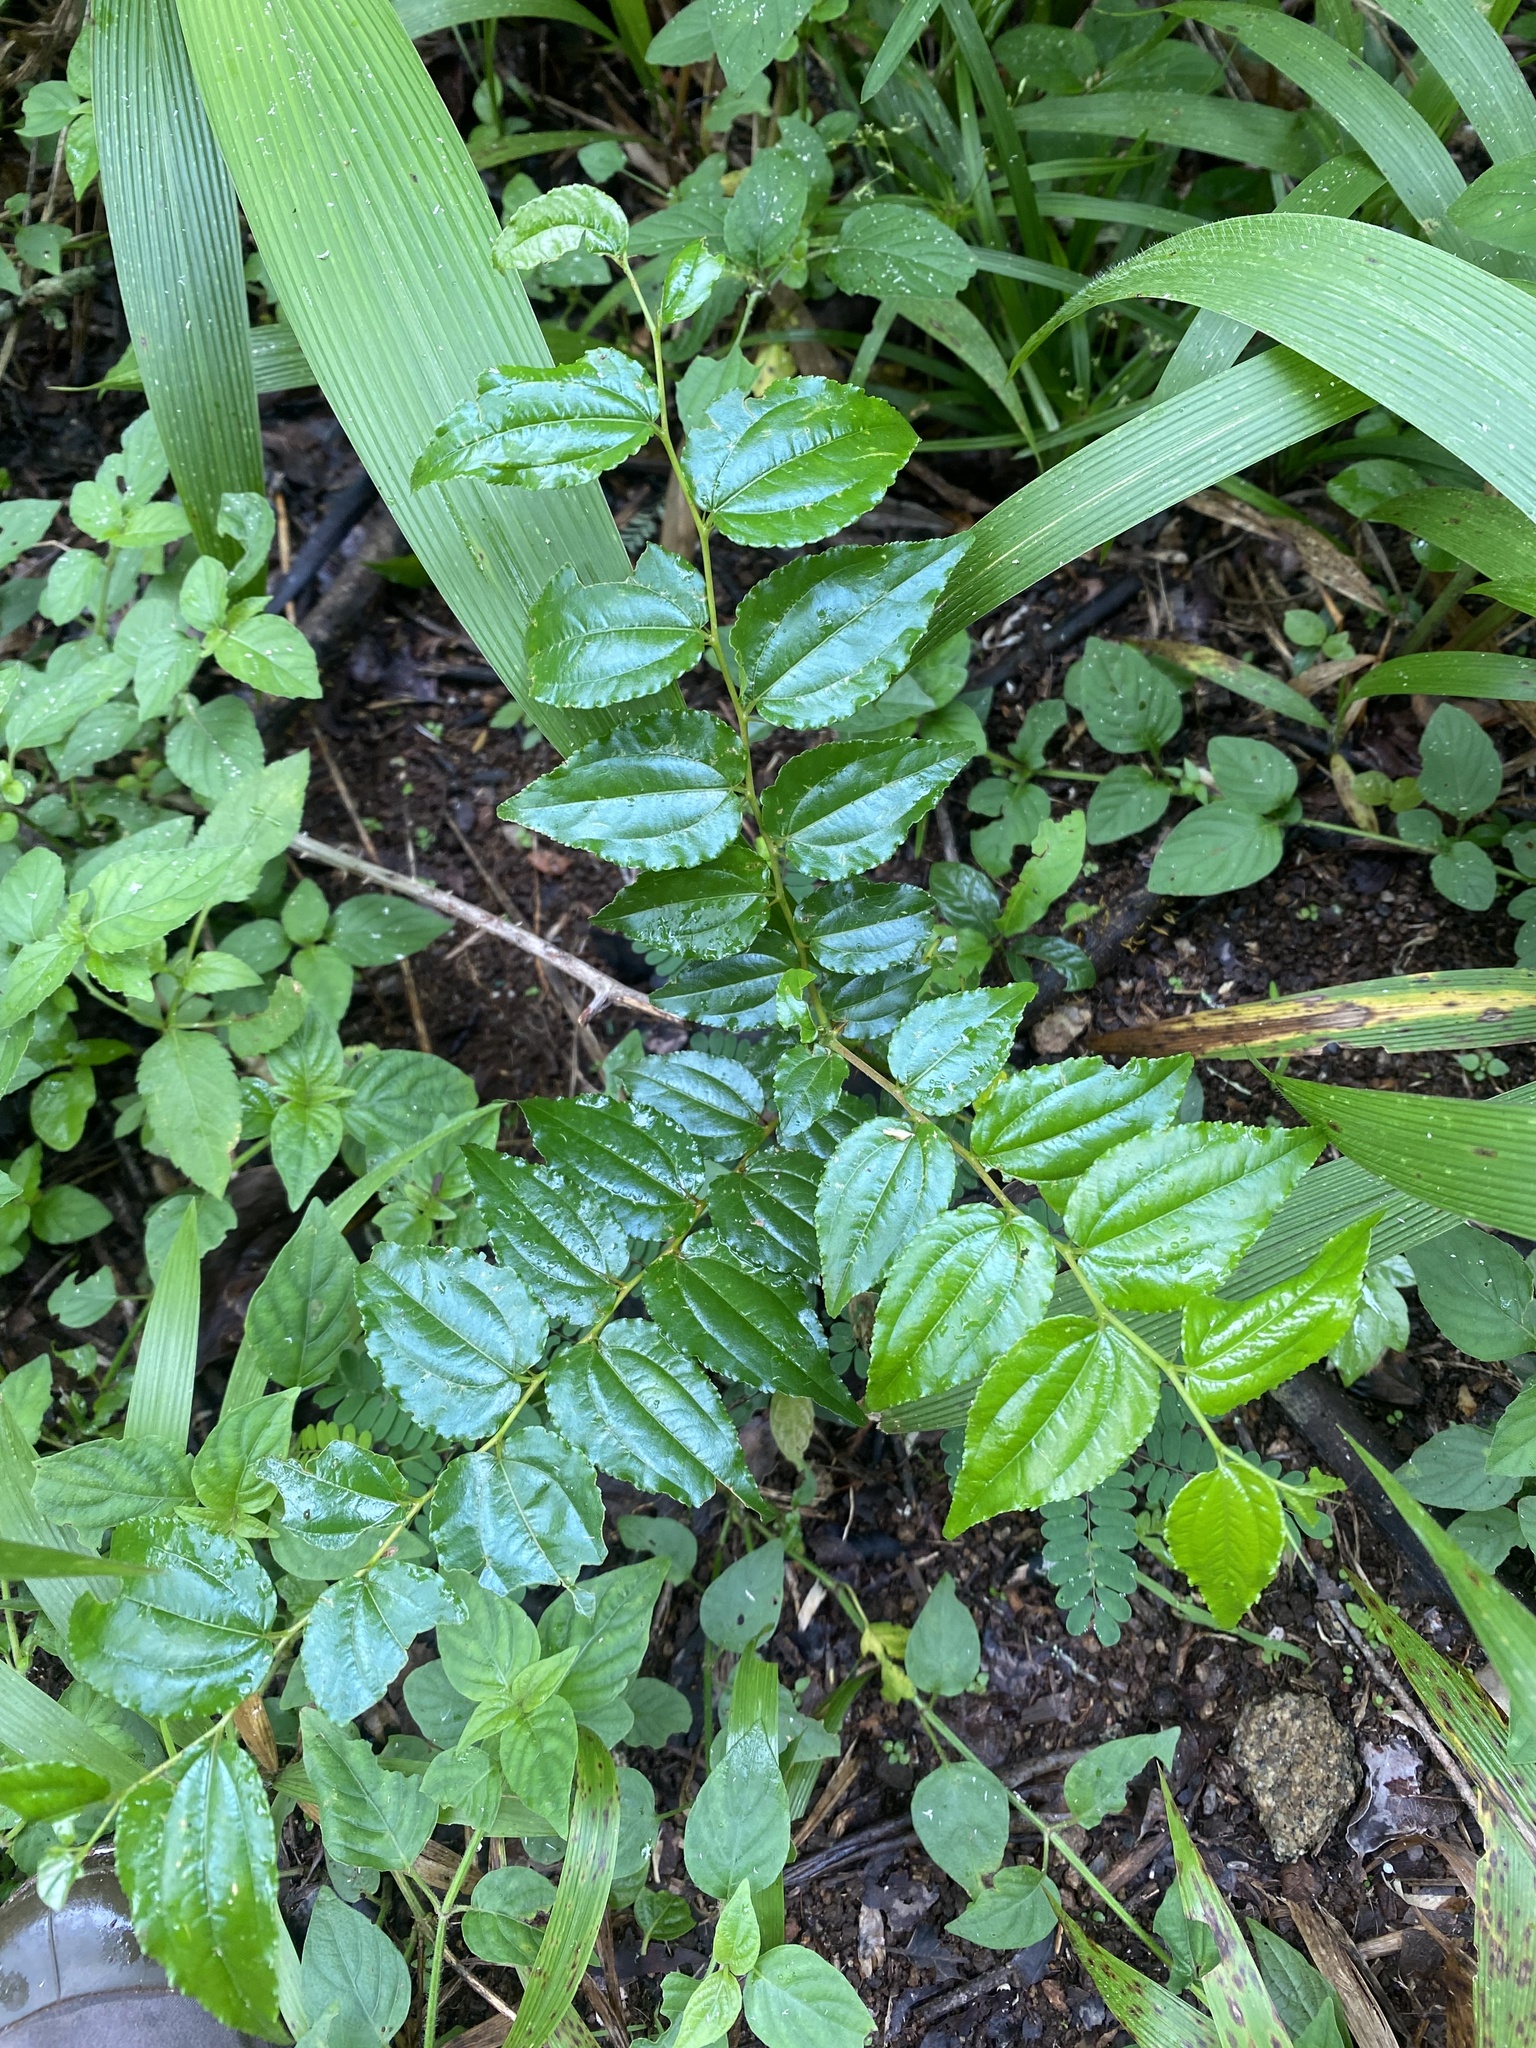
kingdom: Plantae
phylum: Tracheophyta
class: Magnoliopsida
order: Rosales
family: Rhamnaceae
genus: Ziziphus
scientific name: Ziziphus mucronata
